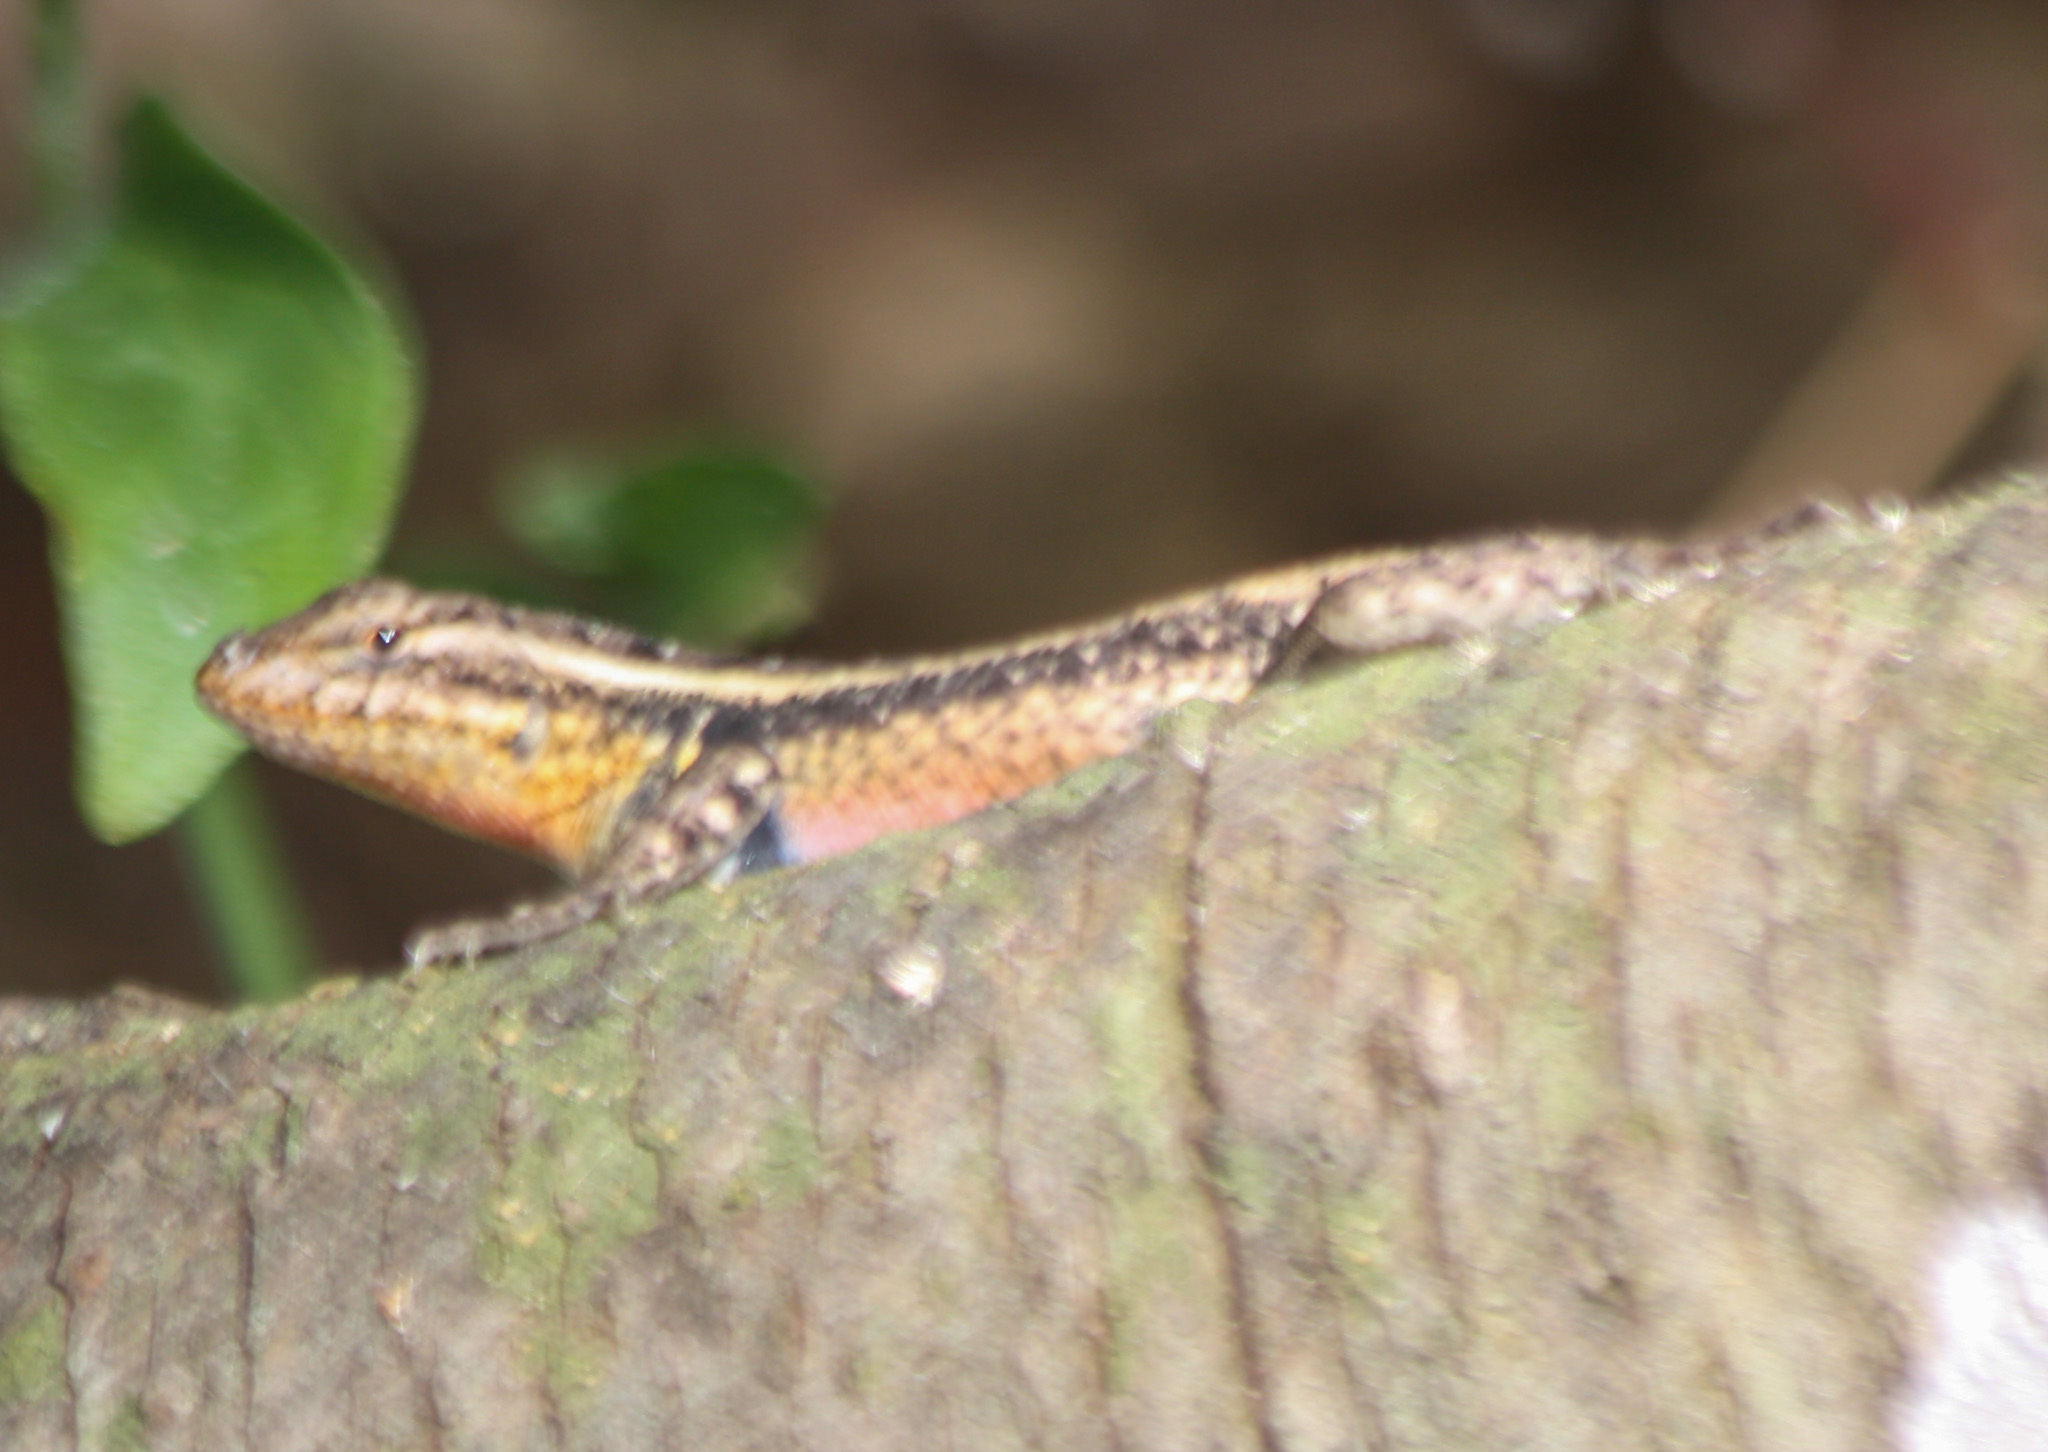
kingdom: Animalia
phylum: Chordata
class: Squamata
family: Phrynosomatidae
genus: Sceloporus
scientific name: Sceloporus variabilis
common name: Rosebelly lizard
